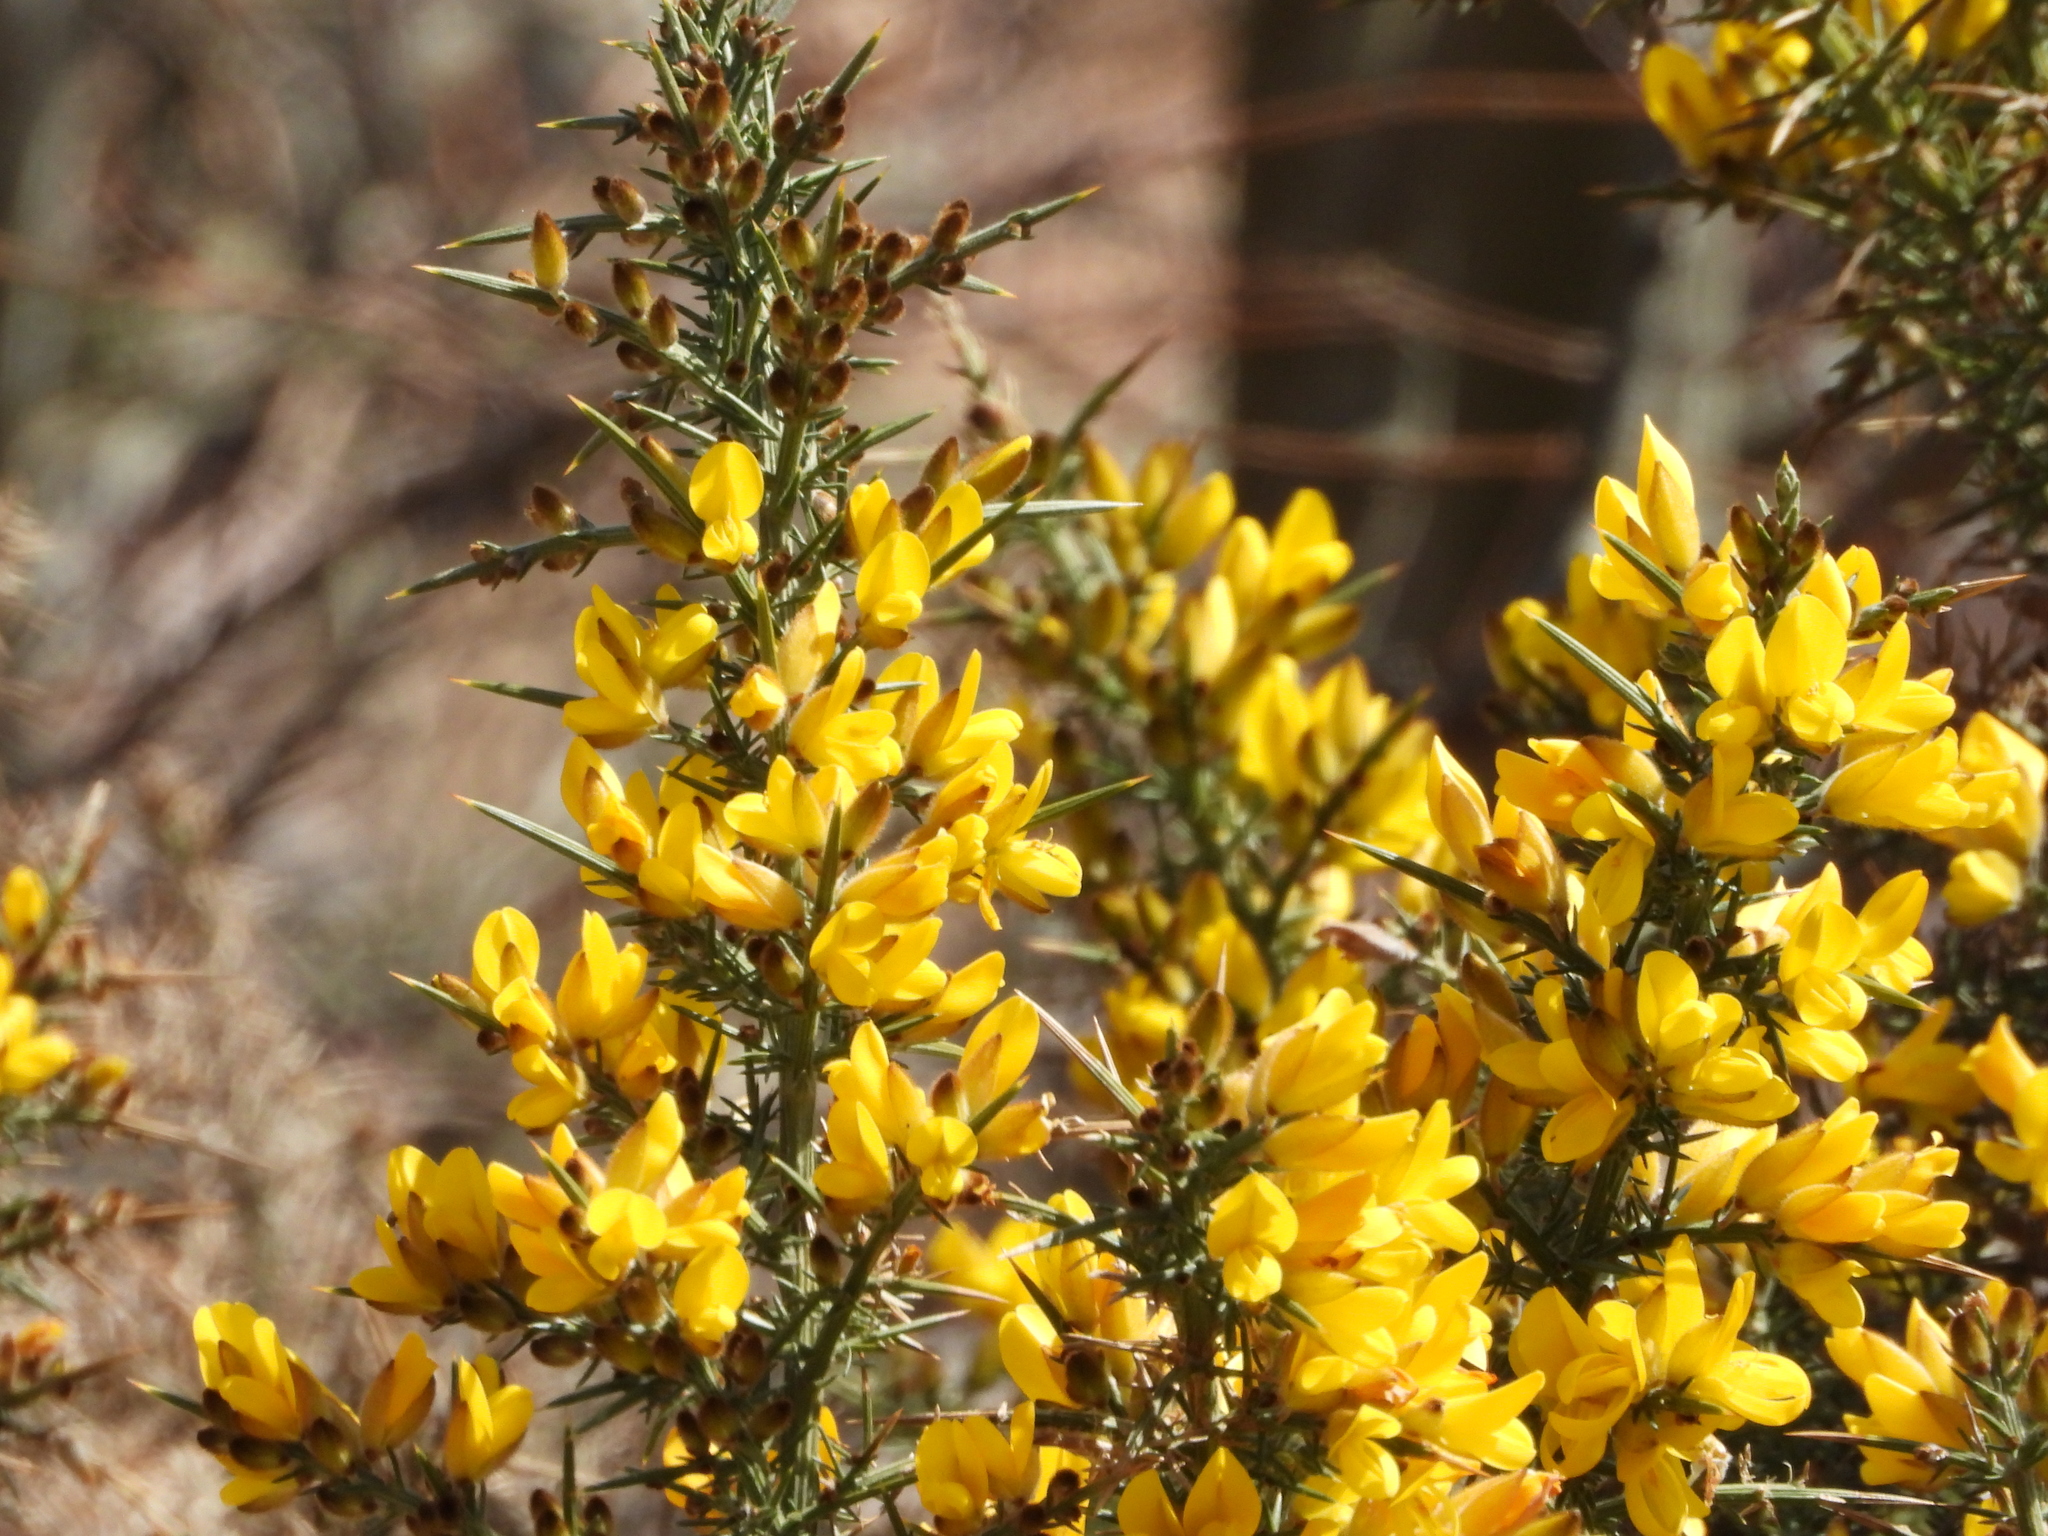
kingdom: Plantae
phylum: Tracheophyta
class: Magnoliopsida
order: Fabales
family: Fabaceae
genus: Ulex
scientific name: Ulex europaeus
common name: Common gorse
